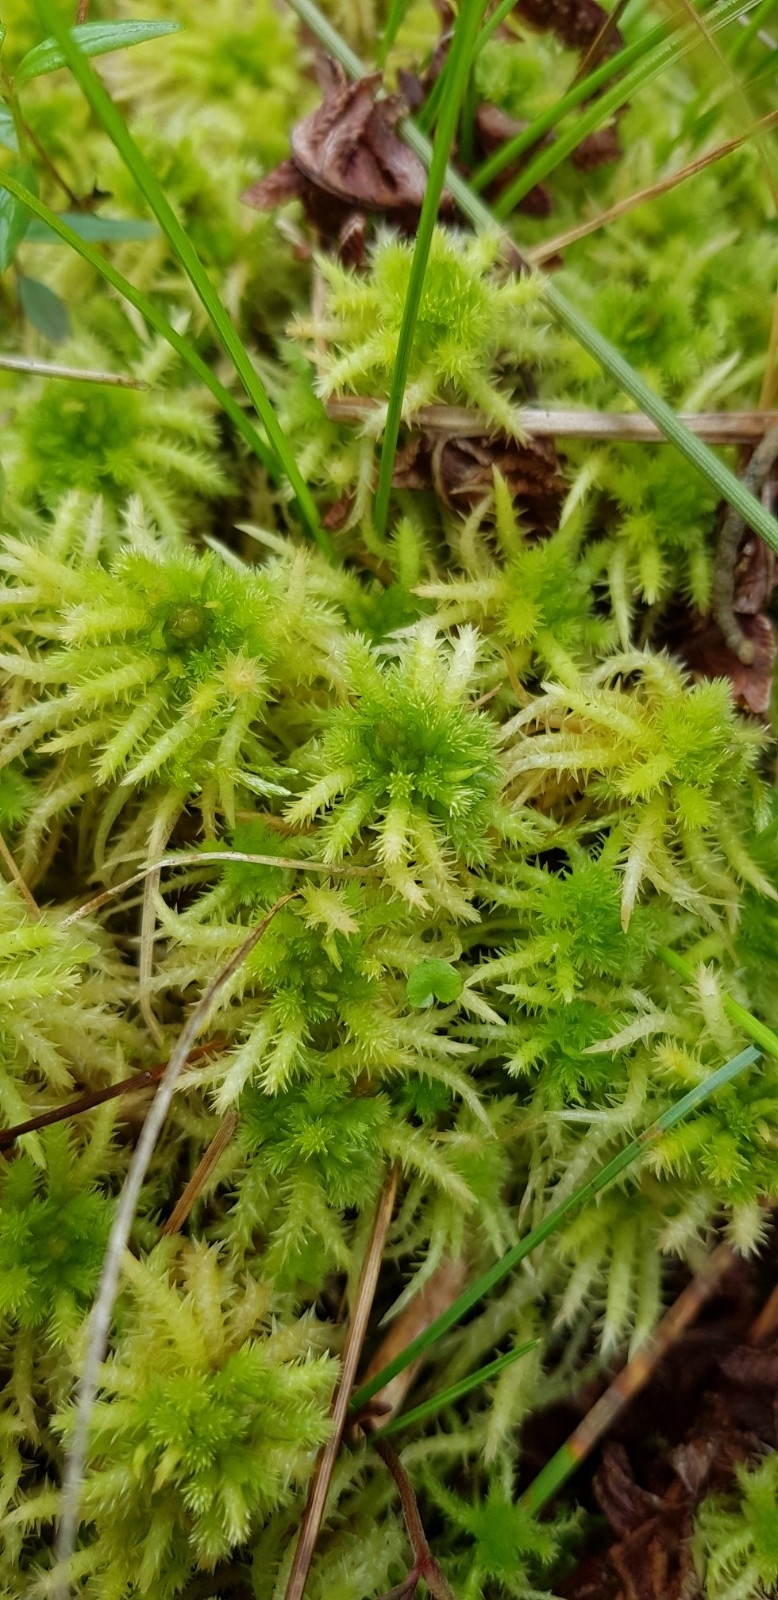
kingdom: Plantae
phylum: Bryophyta
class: Sphagnopsida
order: Sphagnales
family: Sphagnaceae
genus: Sphagnum
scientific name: Sphagnum squarrosum
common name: Shaggy peat moss
